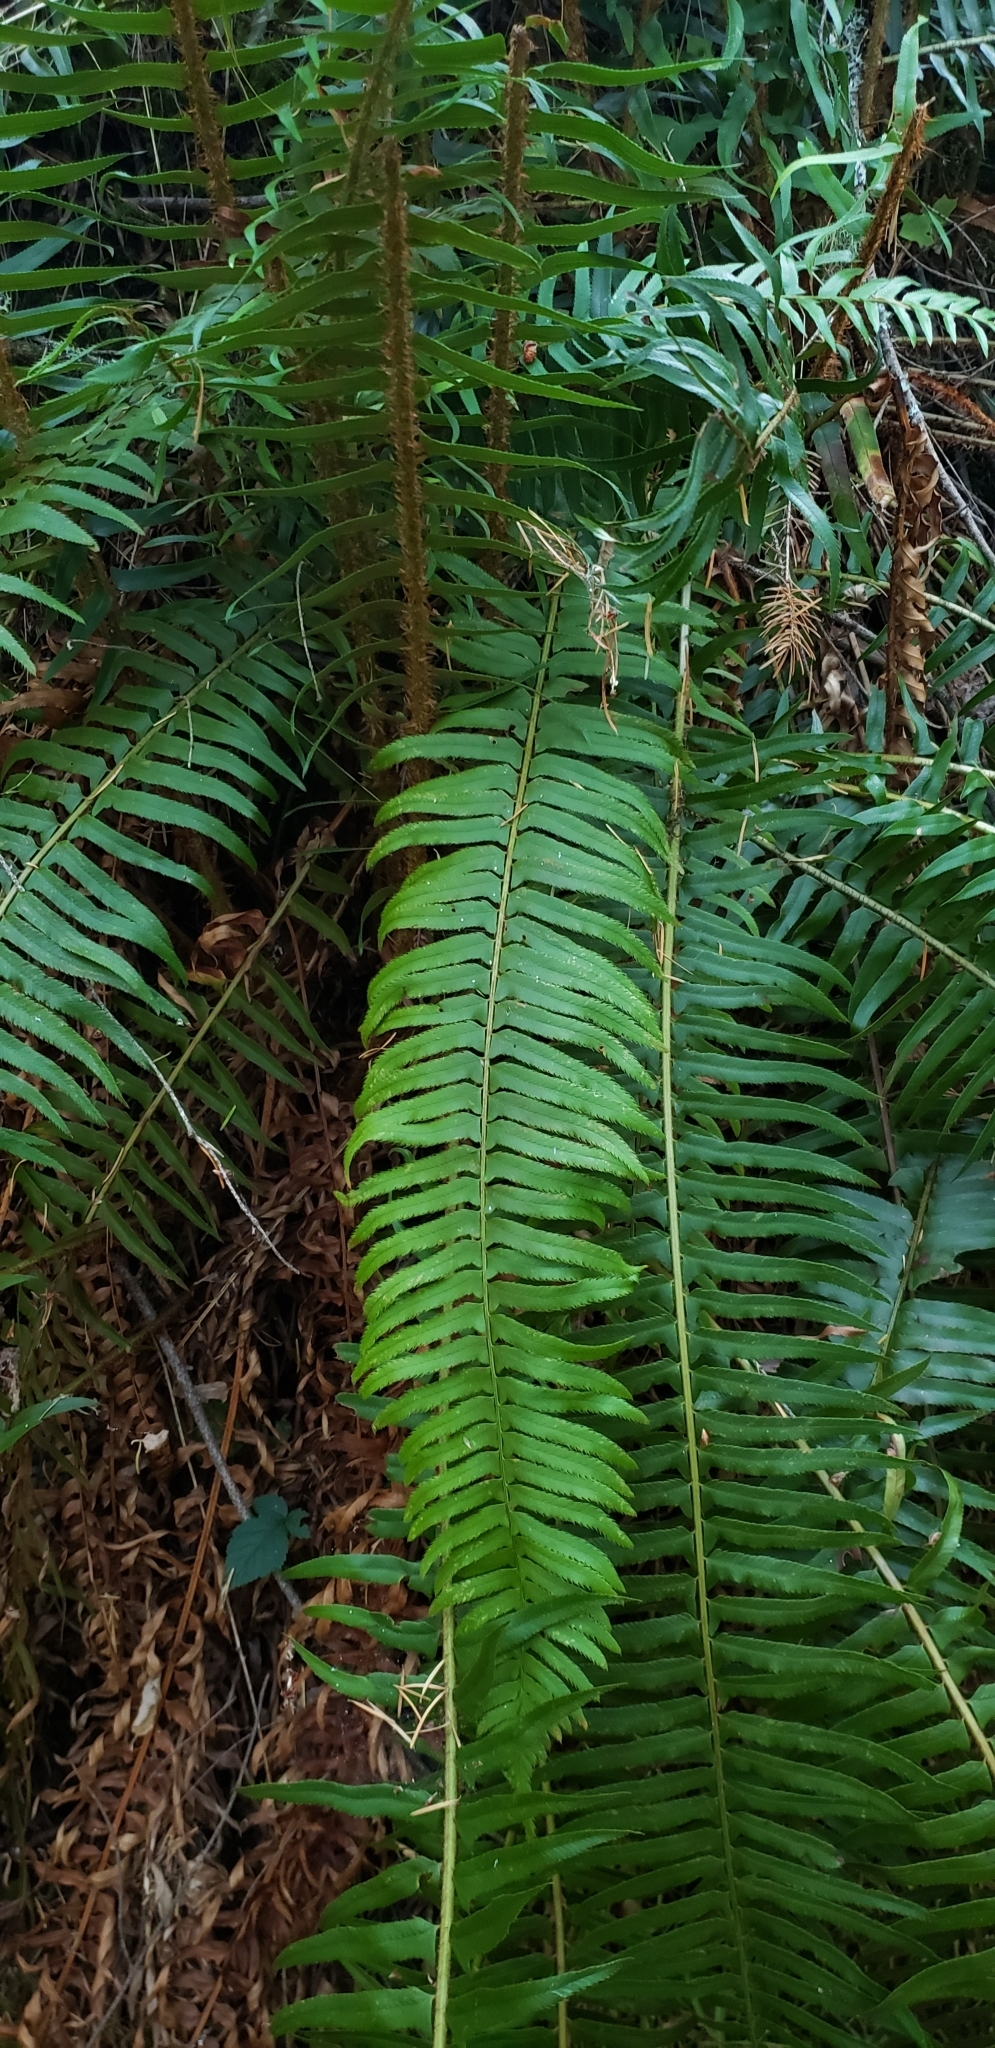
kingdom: Plantae
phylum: Tracheophyta
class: Polypodiopsida
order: Polypodiales
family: Dryopteridaceae
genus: Polystichum
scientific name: Polystichum munitum
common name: Western sword-fern
